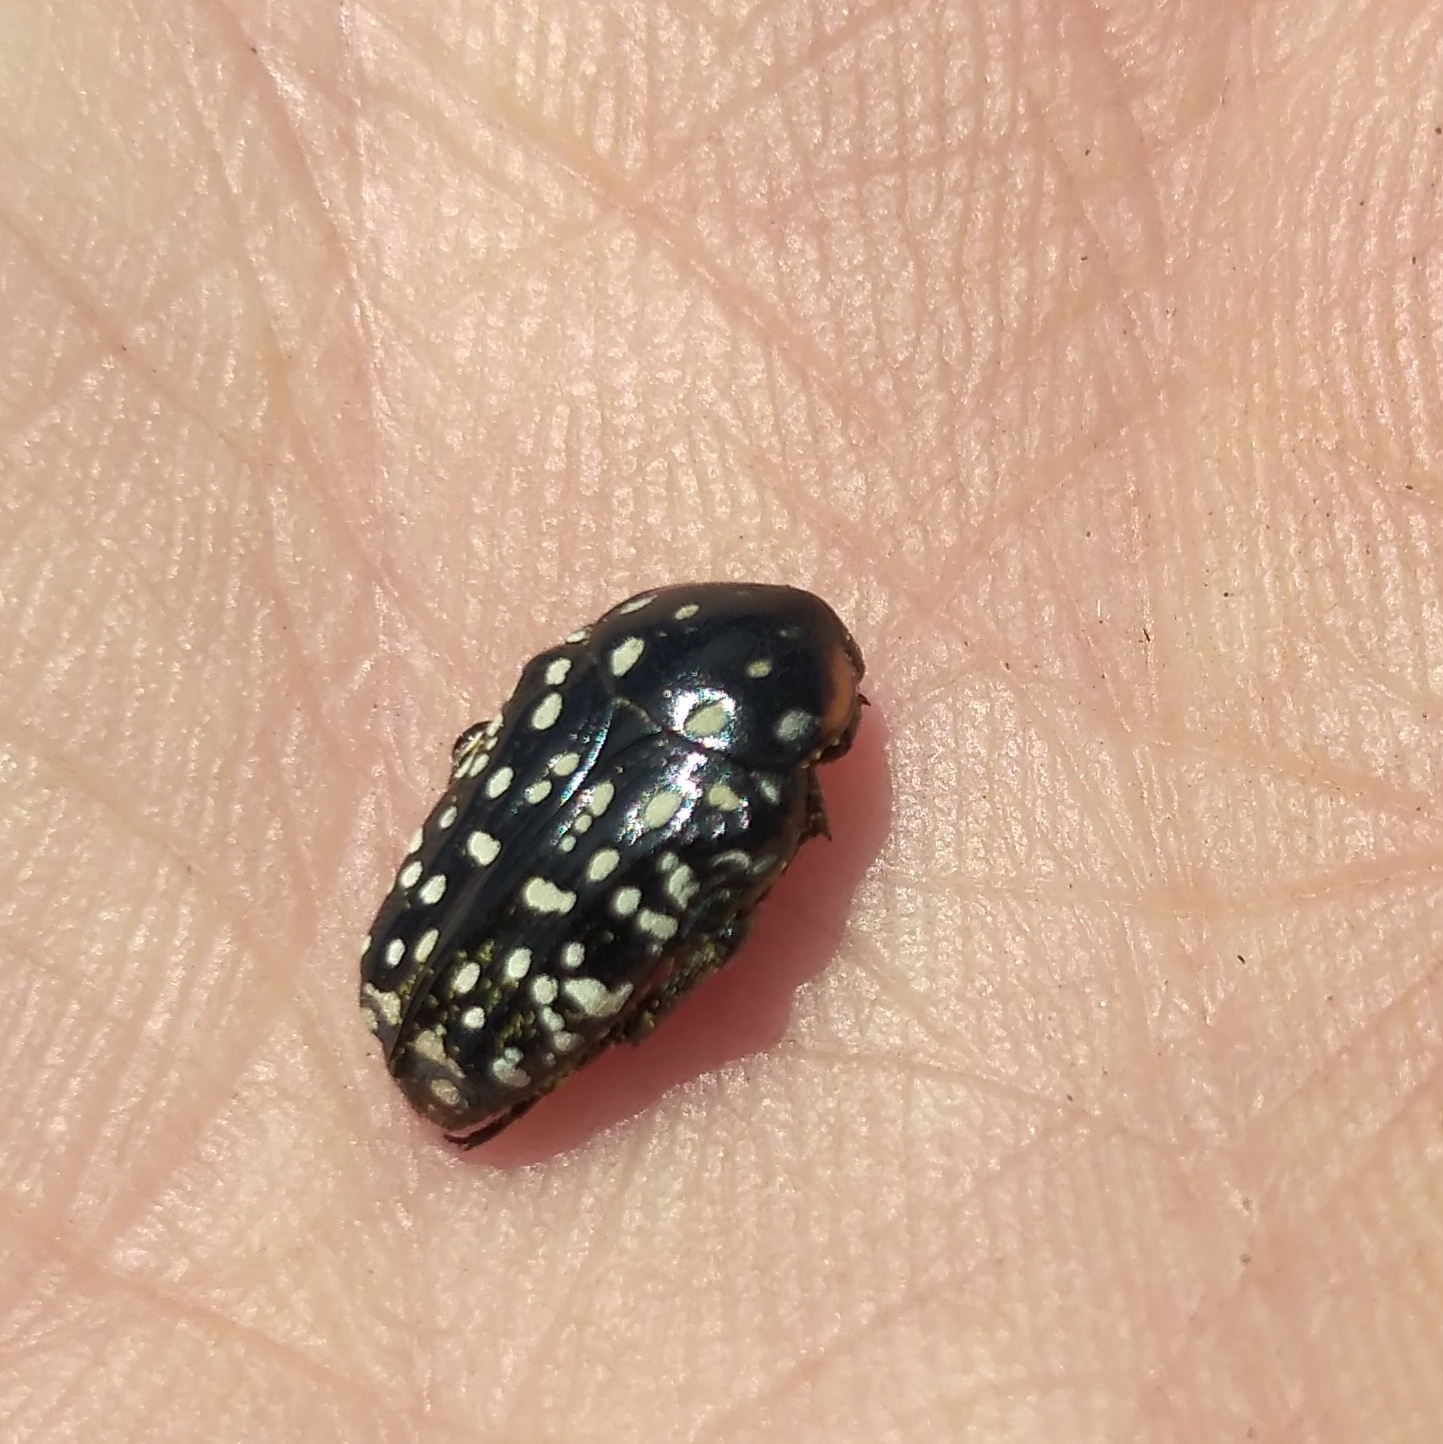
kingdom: Animalia
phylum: Arthropoda
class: Insecta
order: Coleoptera
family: Scarabaeidae
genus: Oxythyrea
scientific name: Oxythyrea
